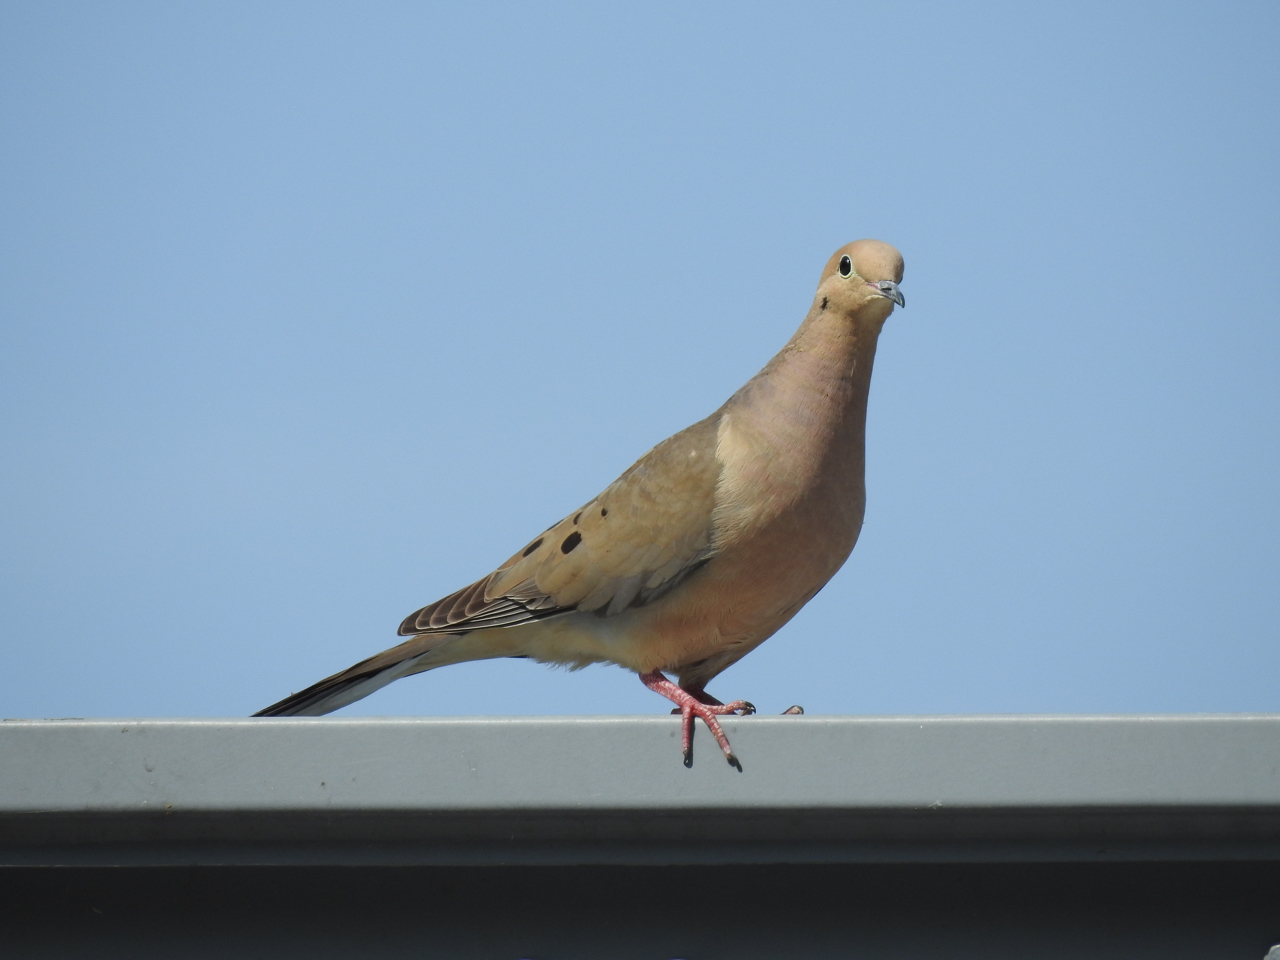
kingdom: Animalia
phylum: Chordata
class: Aves
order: Columbiformes
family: Columbidae
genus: Zenaida
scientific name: Zenaida macroura
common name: Mourning dove
